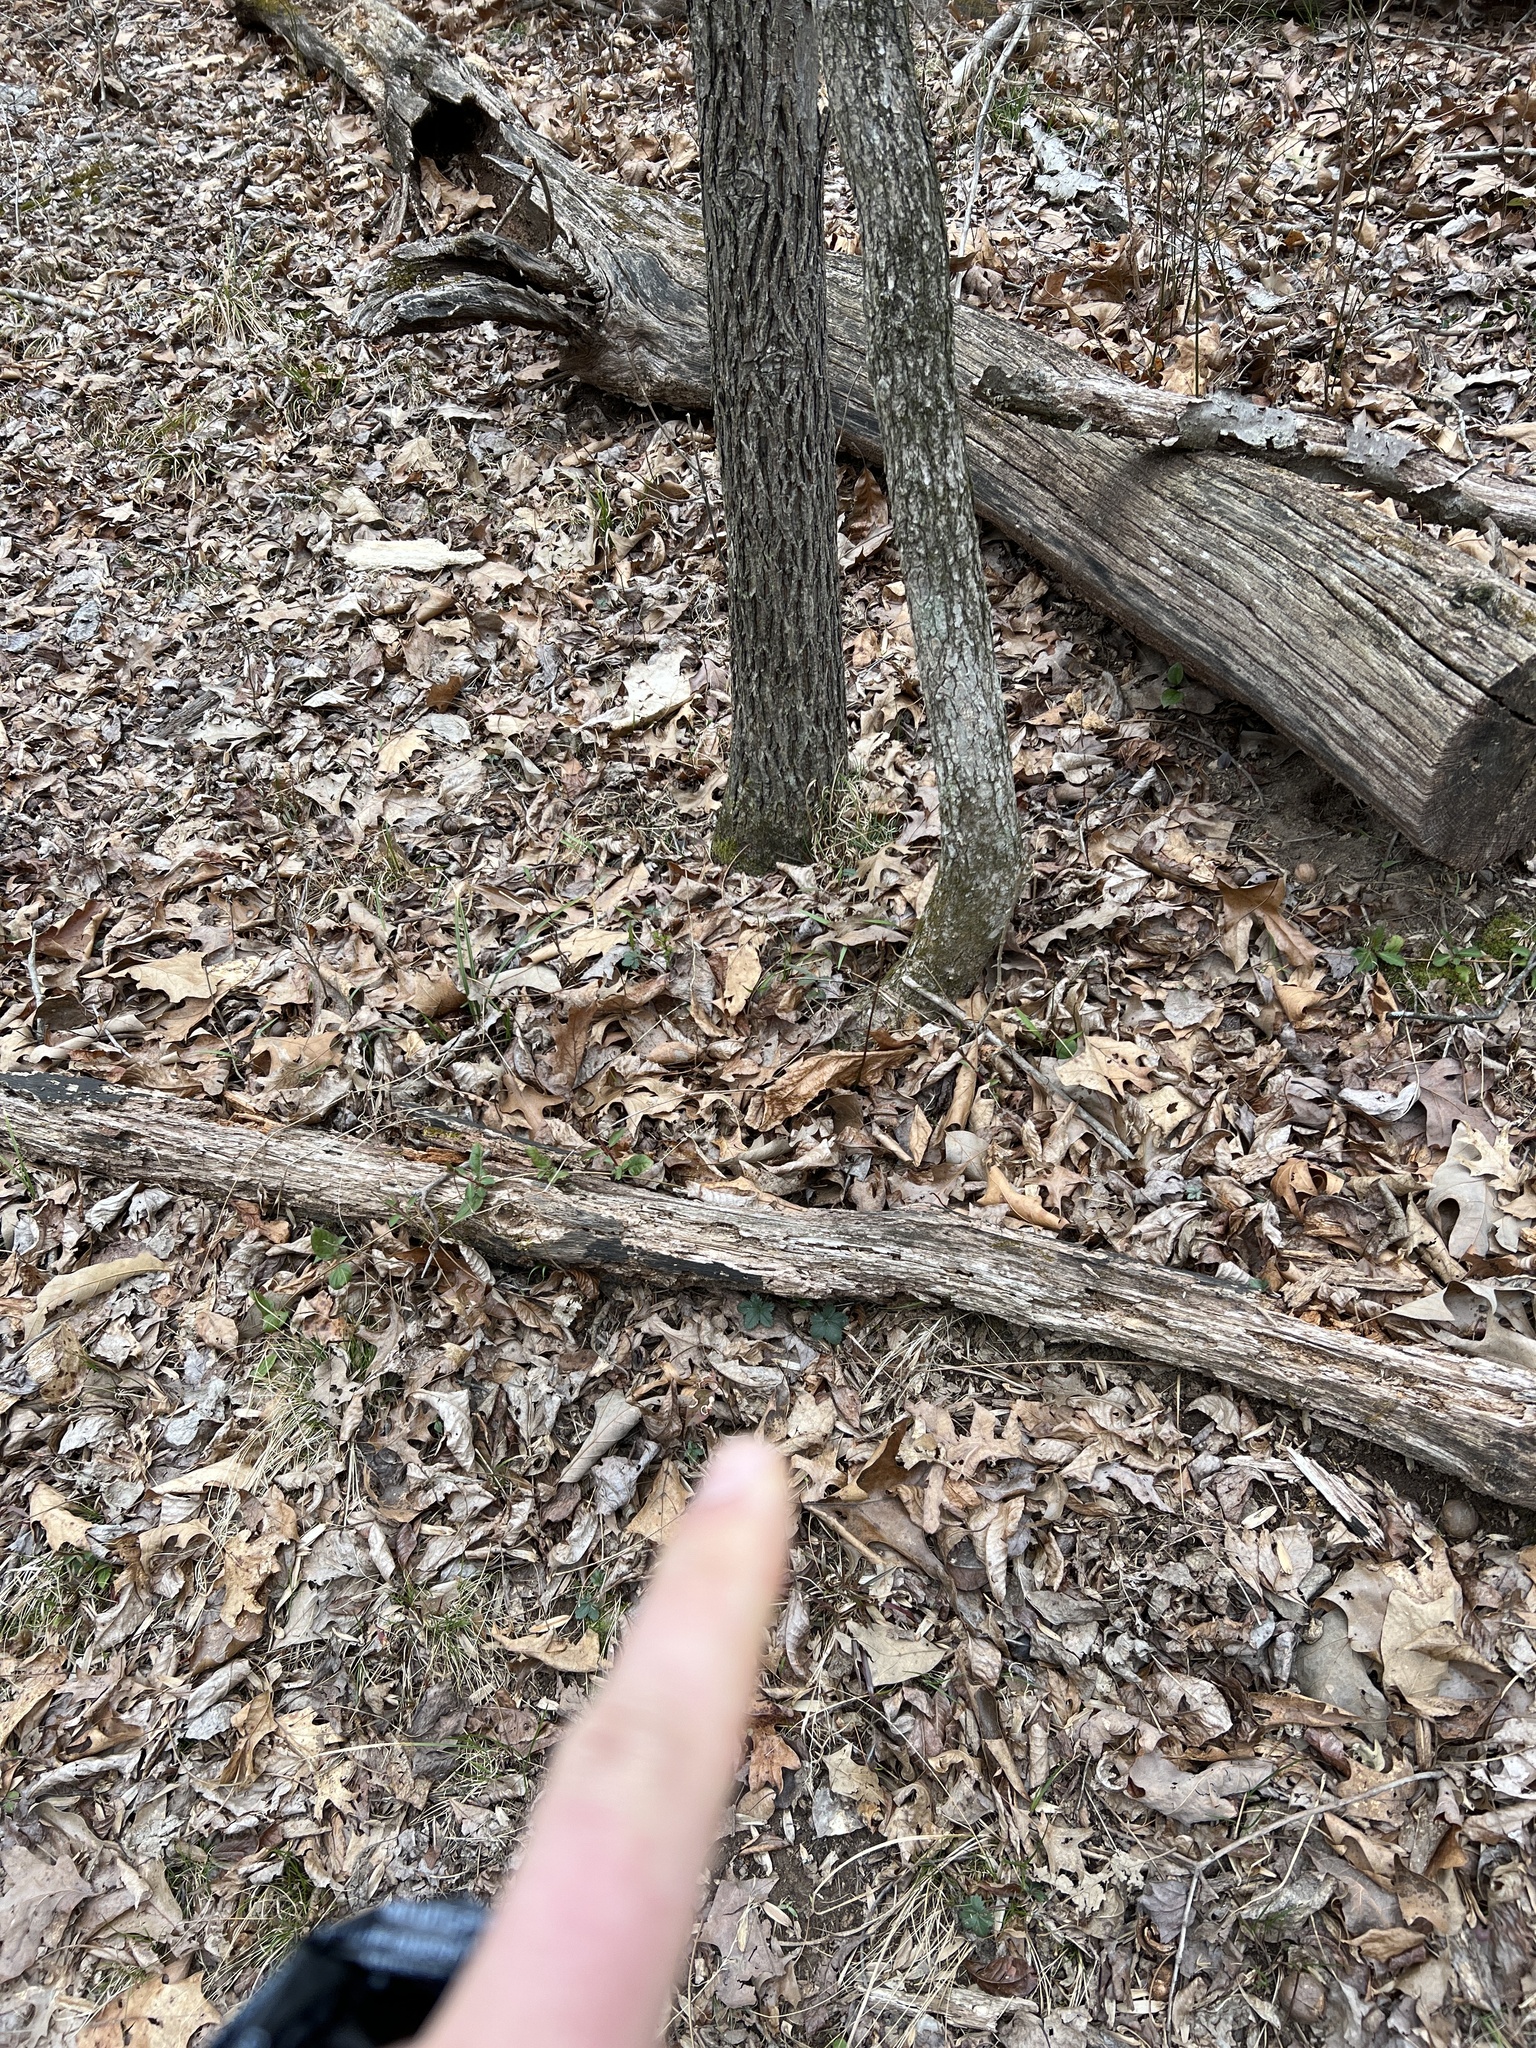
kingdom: Plantae
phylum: Tracheophyta
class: Magnoliopsida
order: Rosales
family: Rosaceae
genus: Potentilla
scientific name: Potentilla canadensis
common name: Canada cinquefoil
